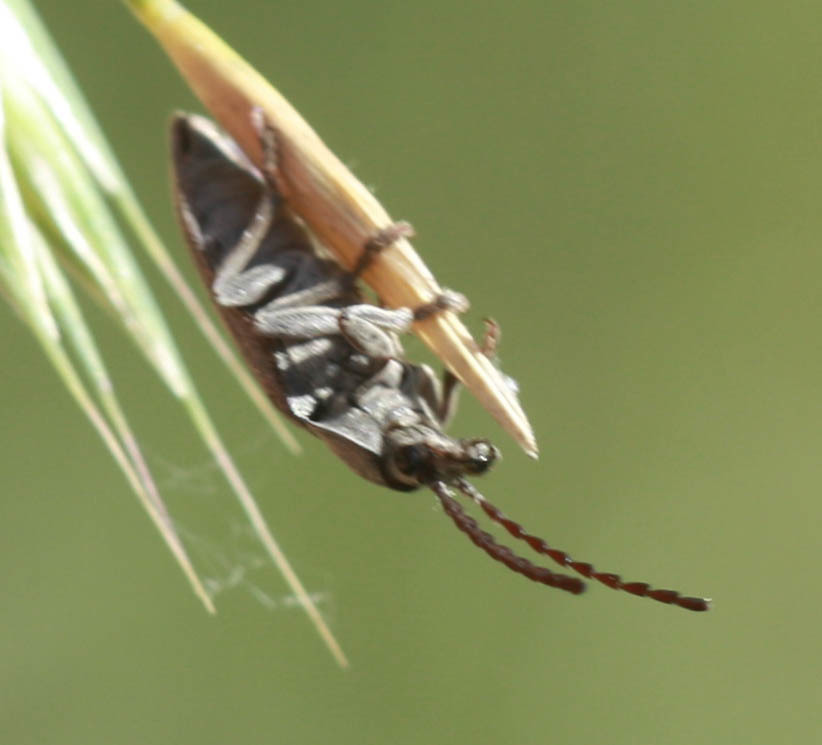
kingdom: Animalia
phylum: Arthropoda
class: Insecta
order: Coleoptera
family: Dascillidae
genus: Dascillus
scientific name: Dascillus davidsoni
